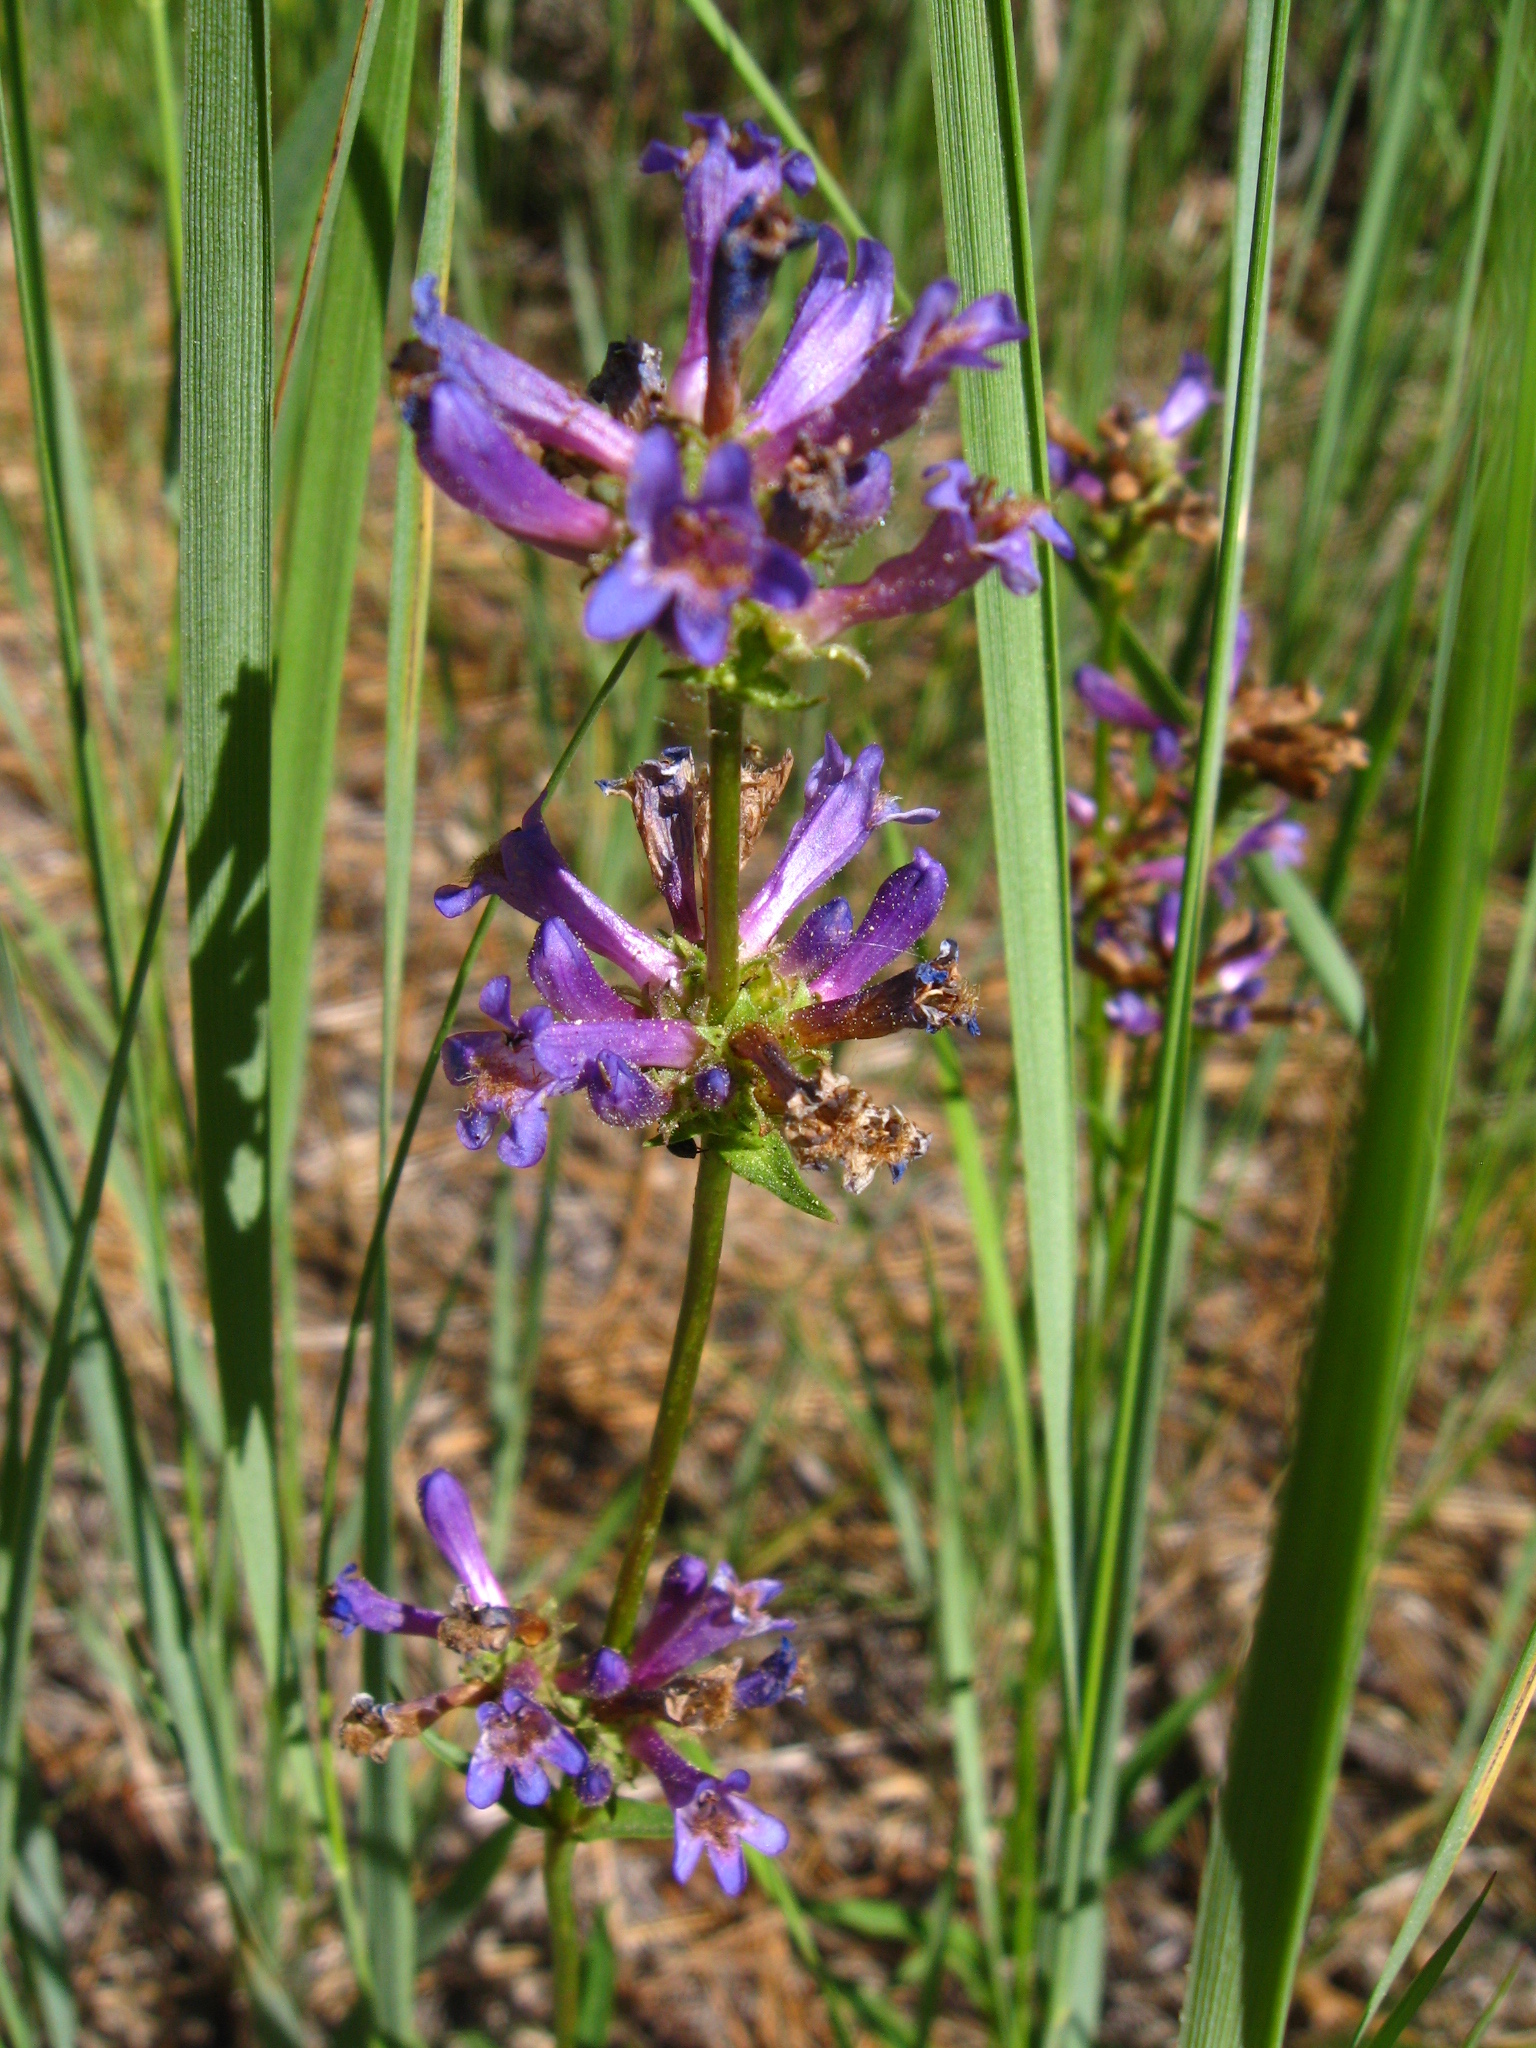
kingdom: Plantae
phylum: Tracheophyta
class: Magnoliopsida
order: Lamiales
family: Plantaginaceae
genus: Penstemon
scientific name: Penstemon heterodoxus
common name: Sierran penstemon
